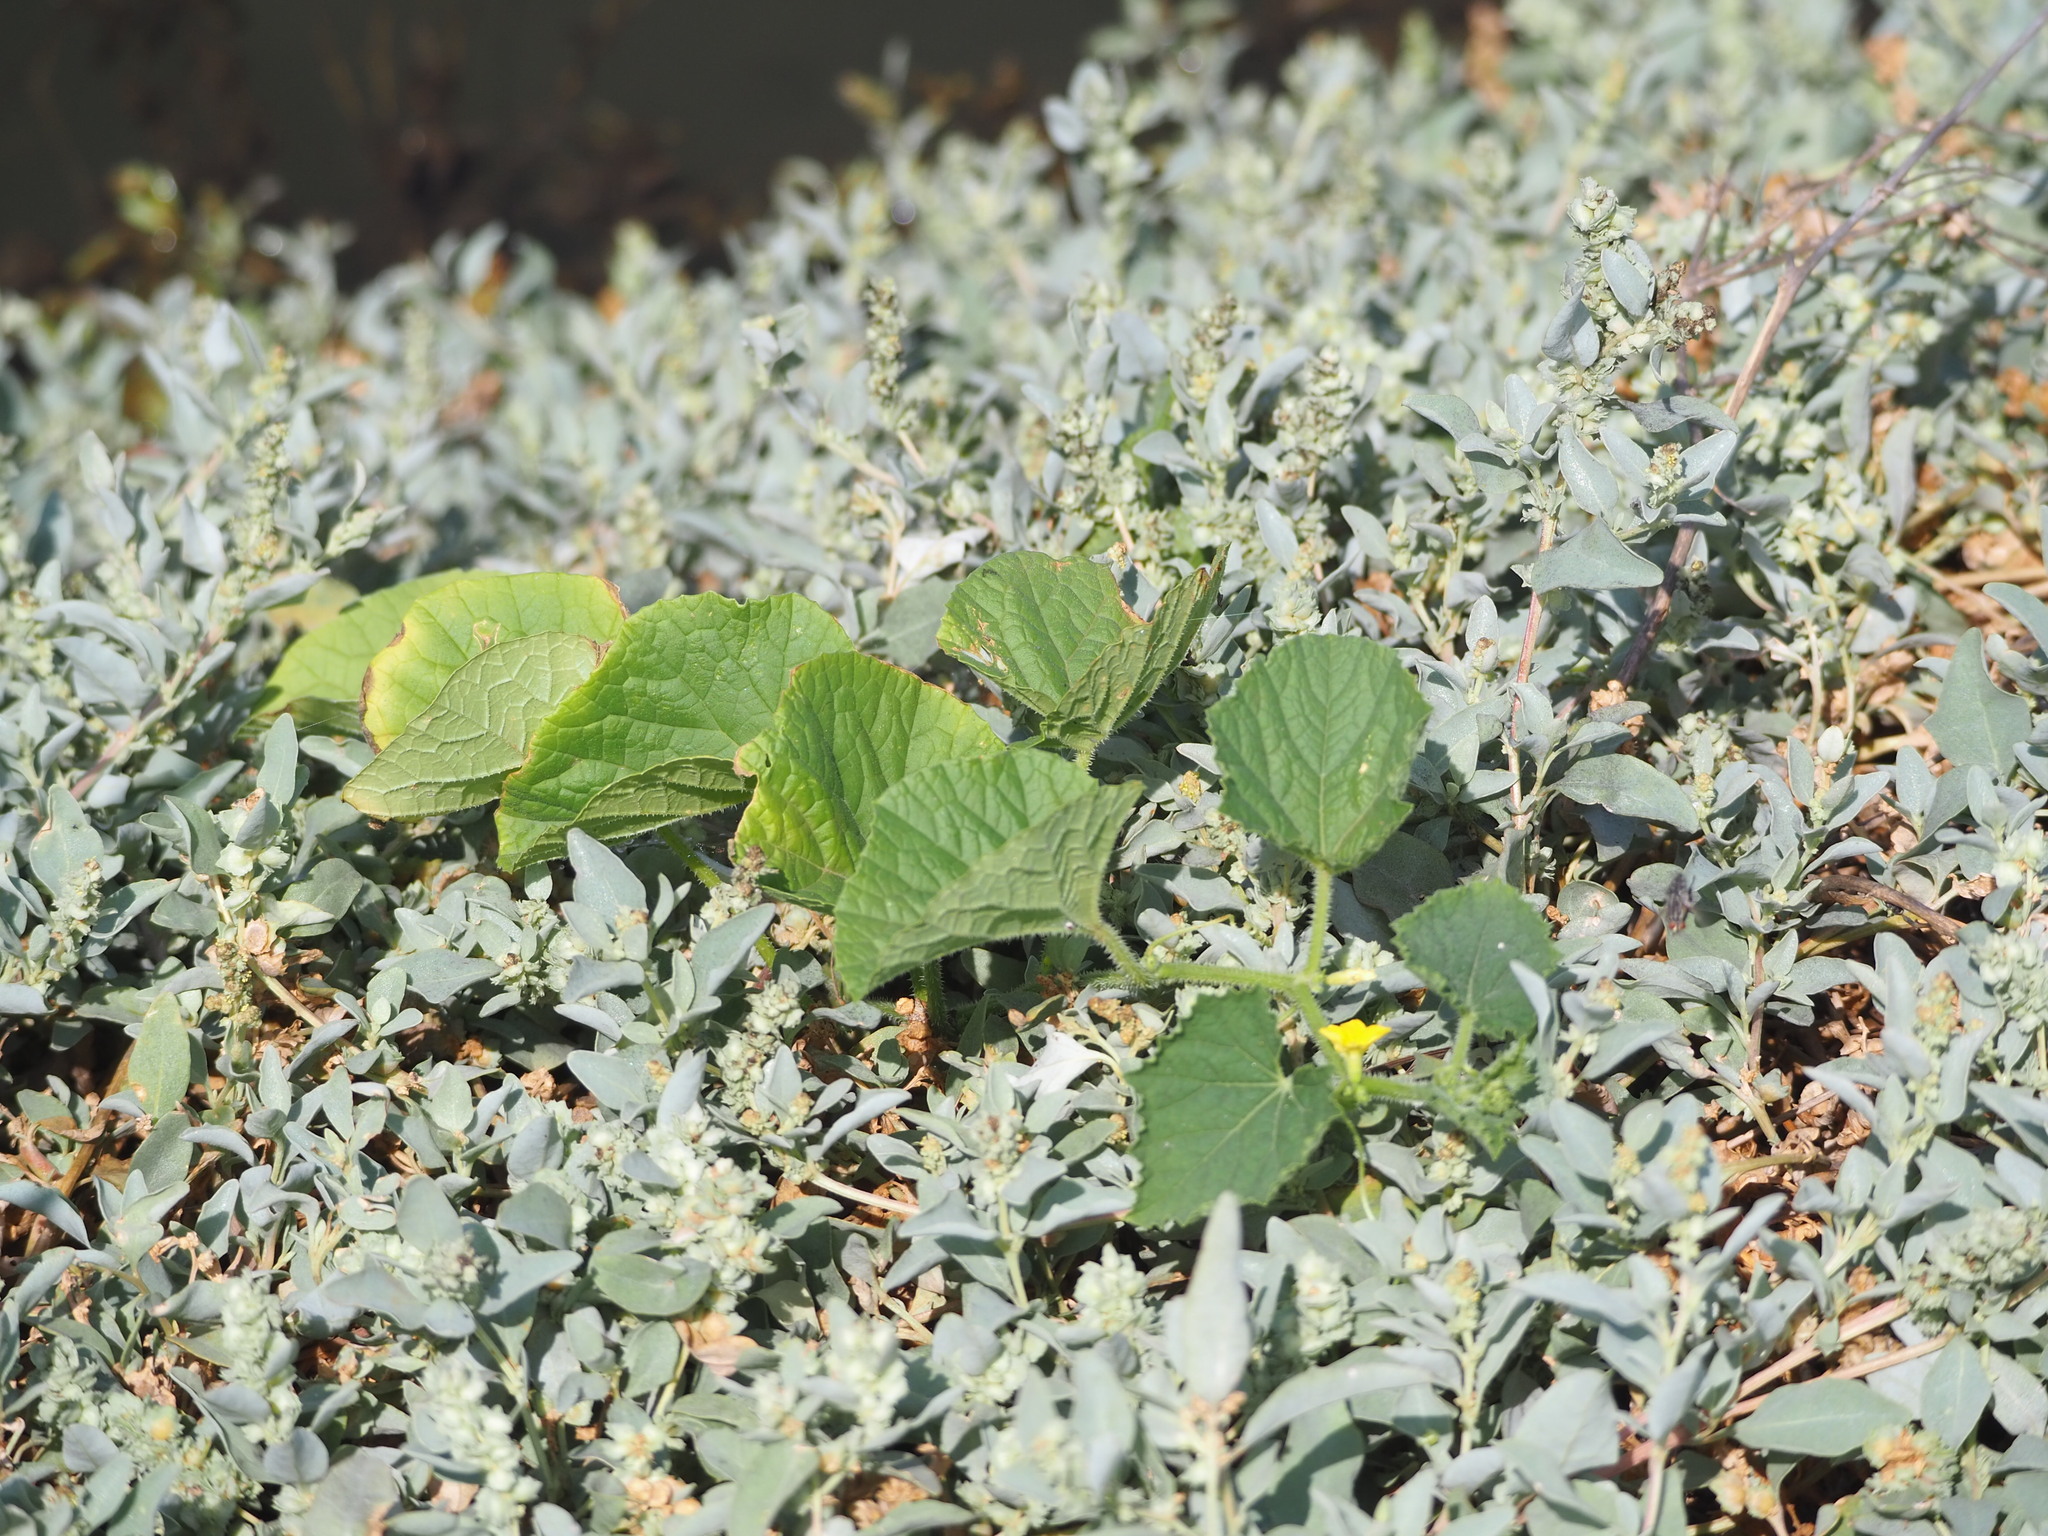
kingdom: Plantae
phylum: Tracheophyta
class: Magnoliopsida
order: Cucurbitales
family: Cucurbitaceae
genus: Cucumis
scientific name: Cucumis melo
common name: Melon
